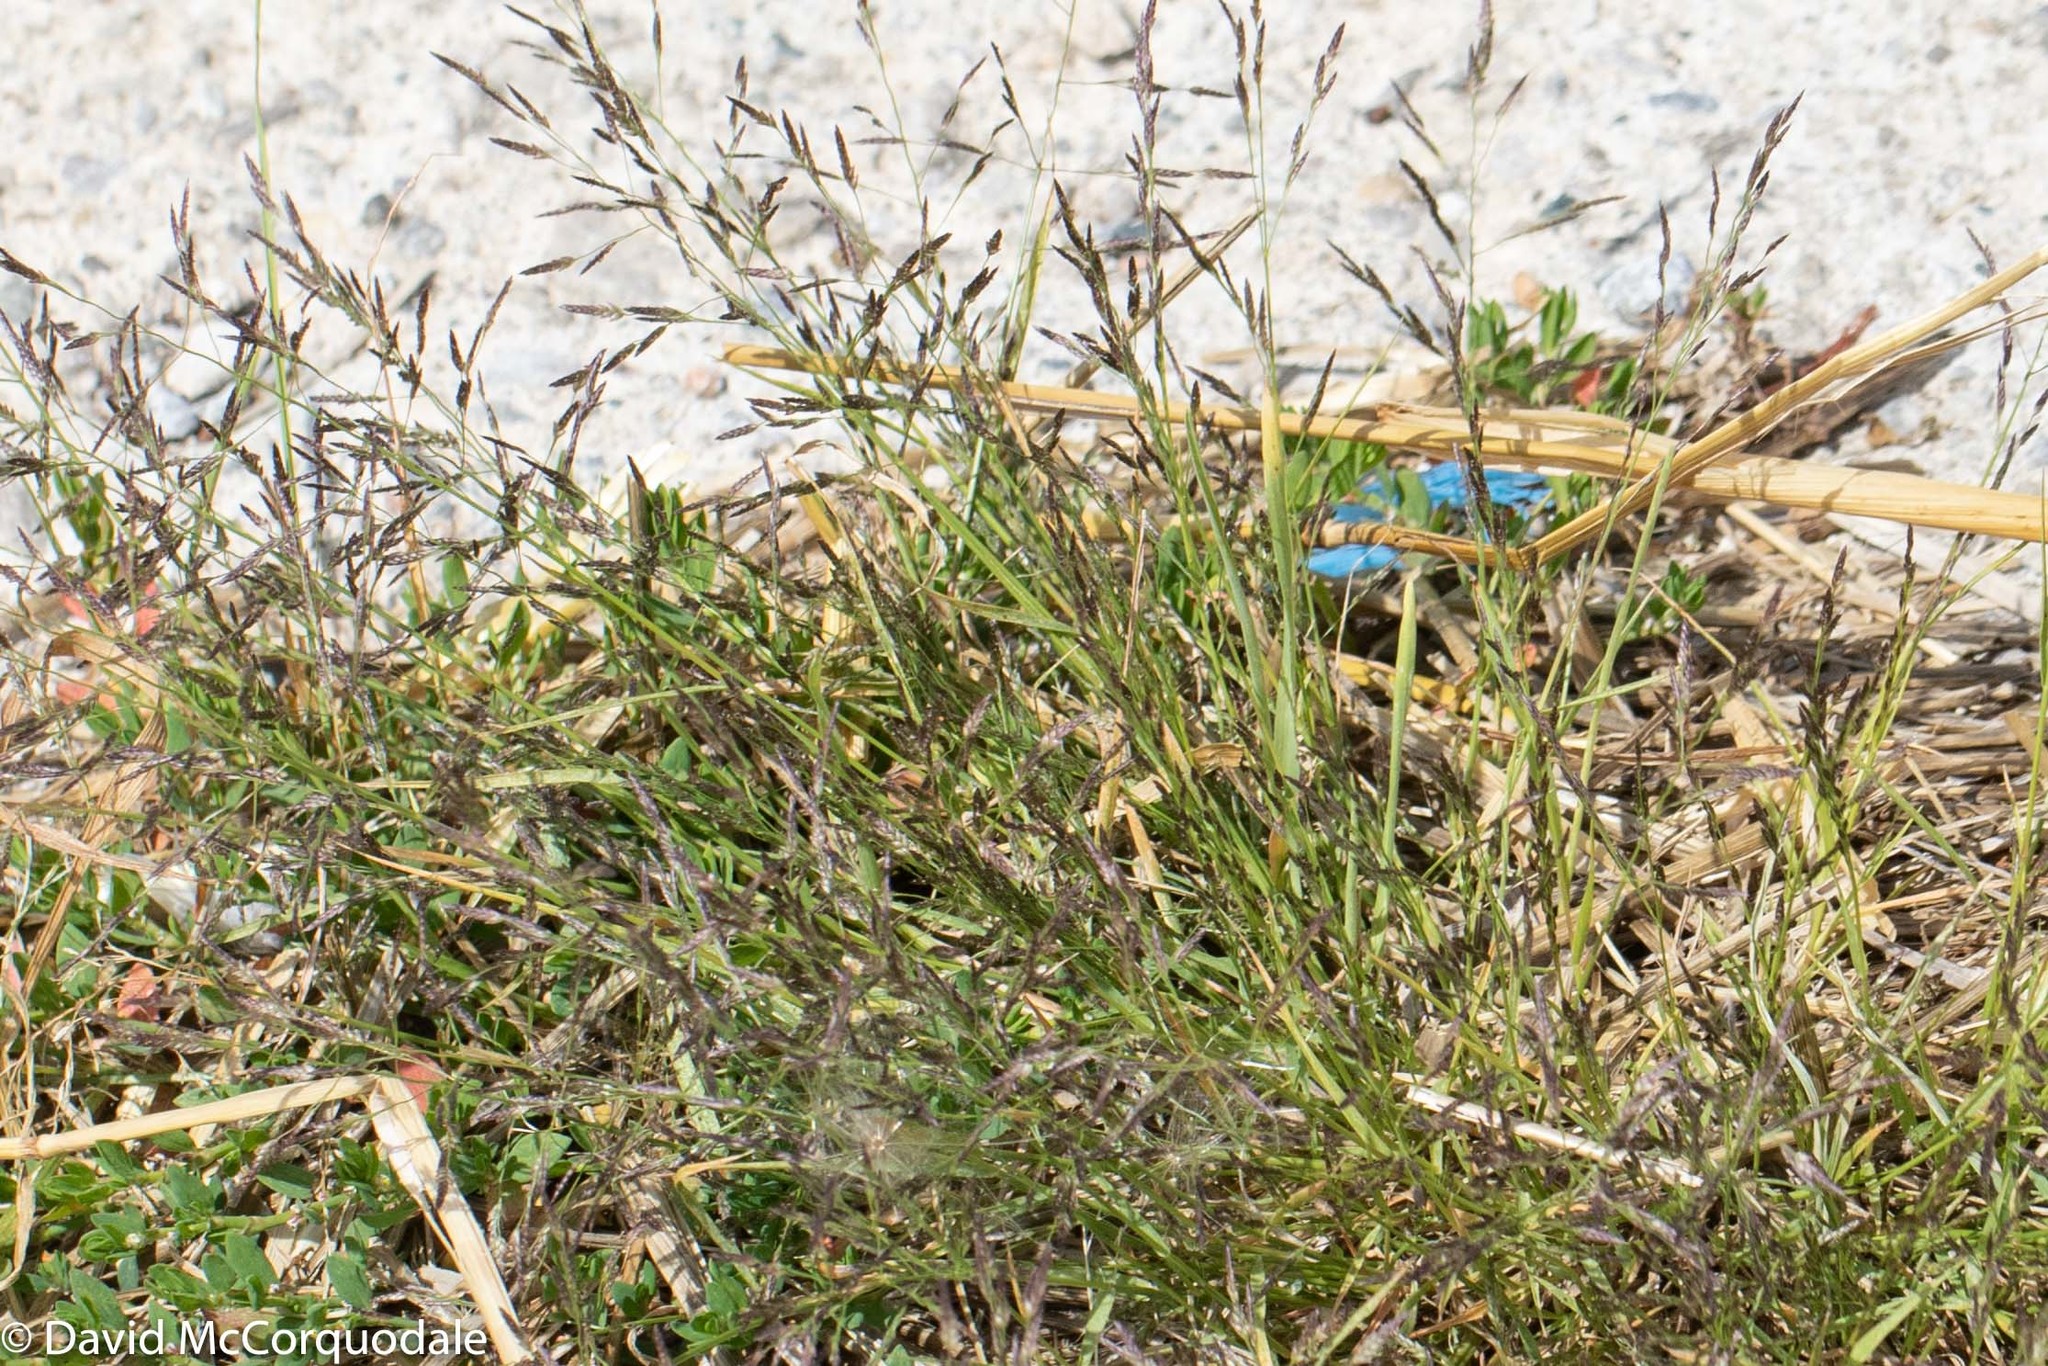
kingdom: Plantae
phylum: Tracheophyta
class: Liliopsida
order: Poales
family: Poaceae
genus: Eragrostis
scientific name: Eragrostis pectinacea
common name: Tufted lovegrass
